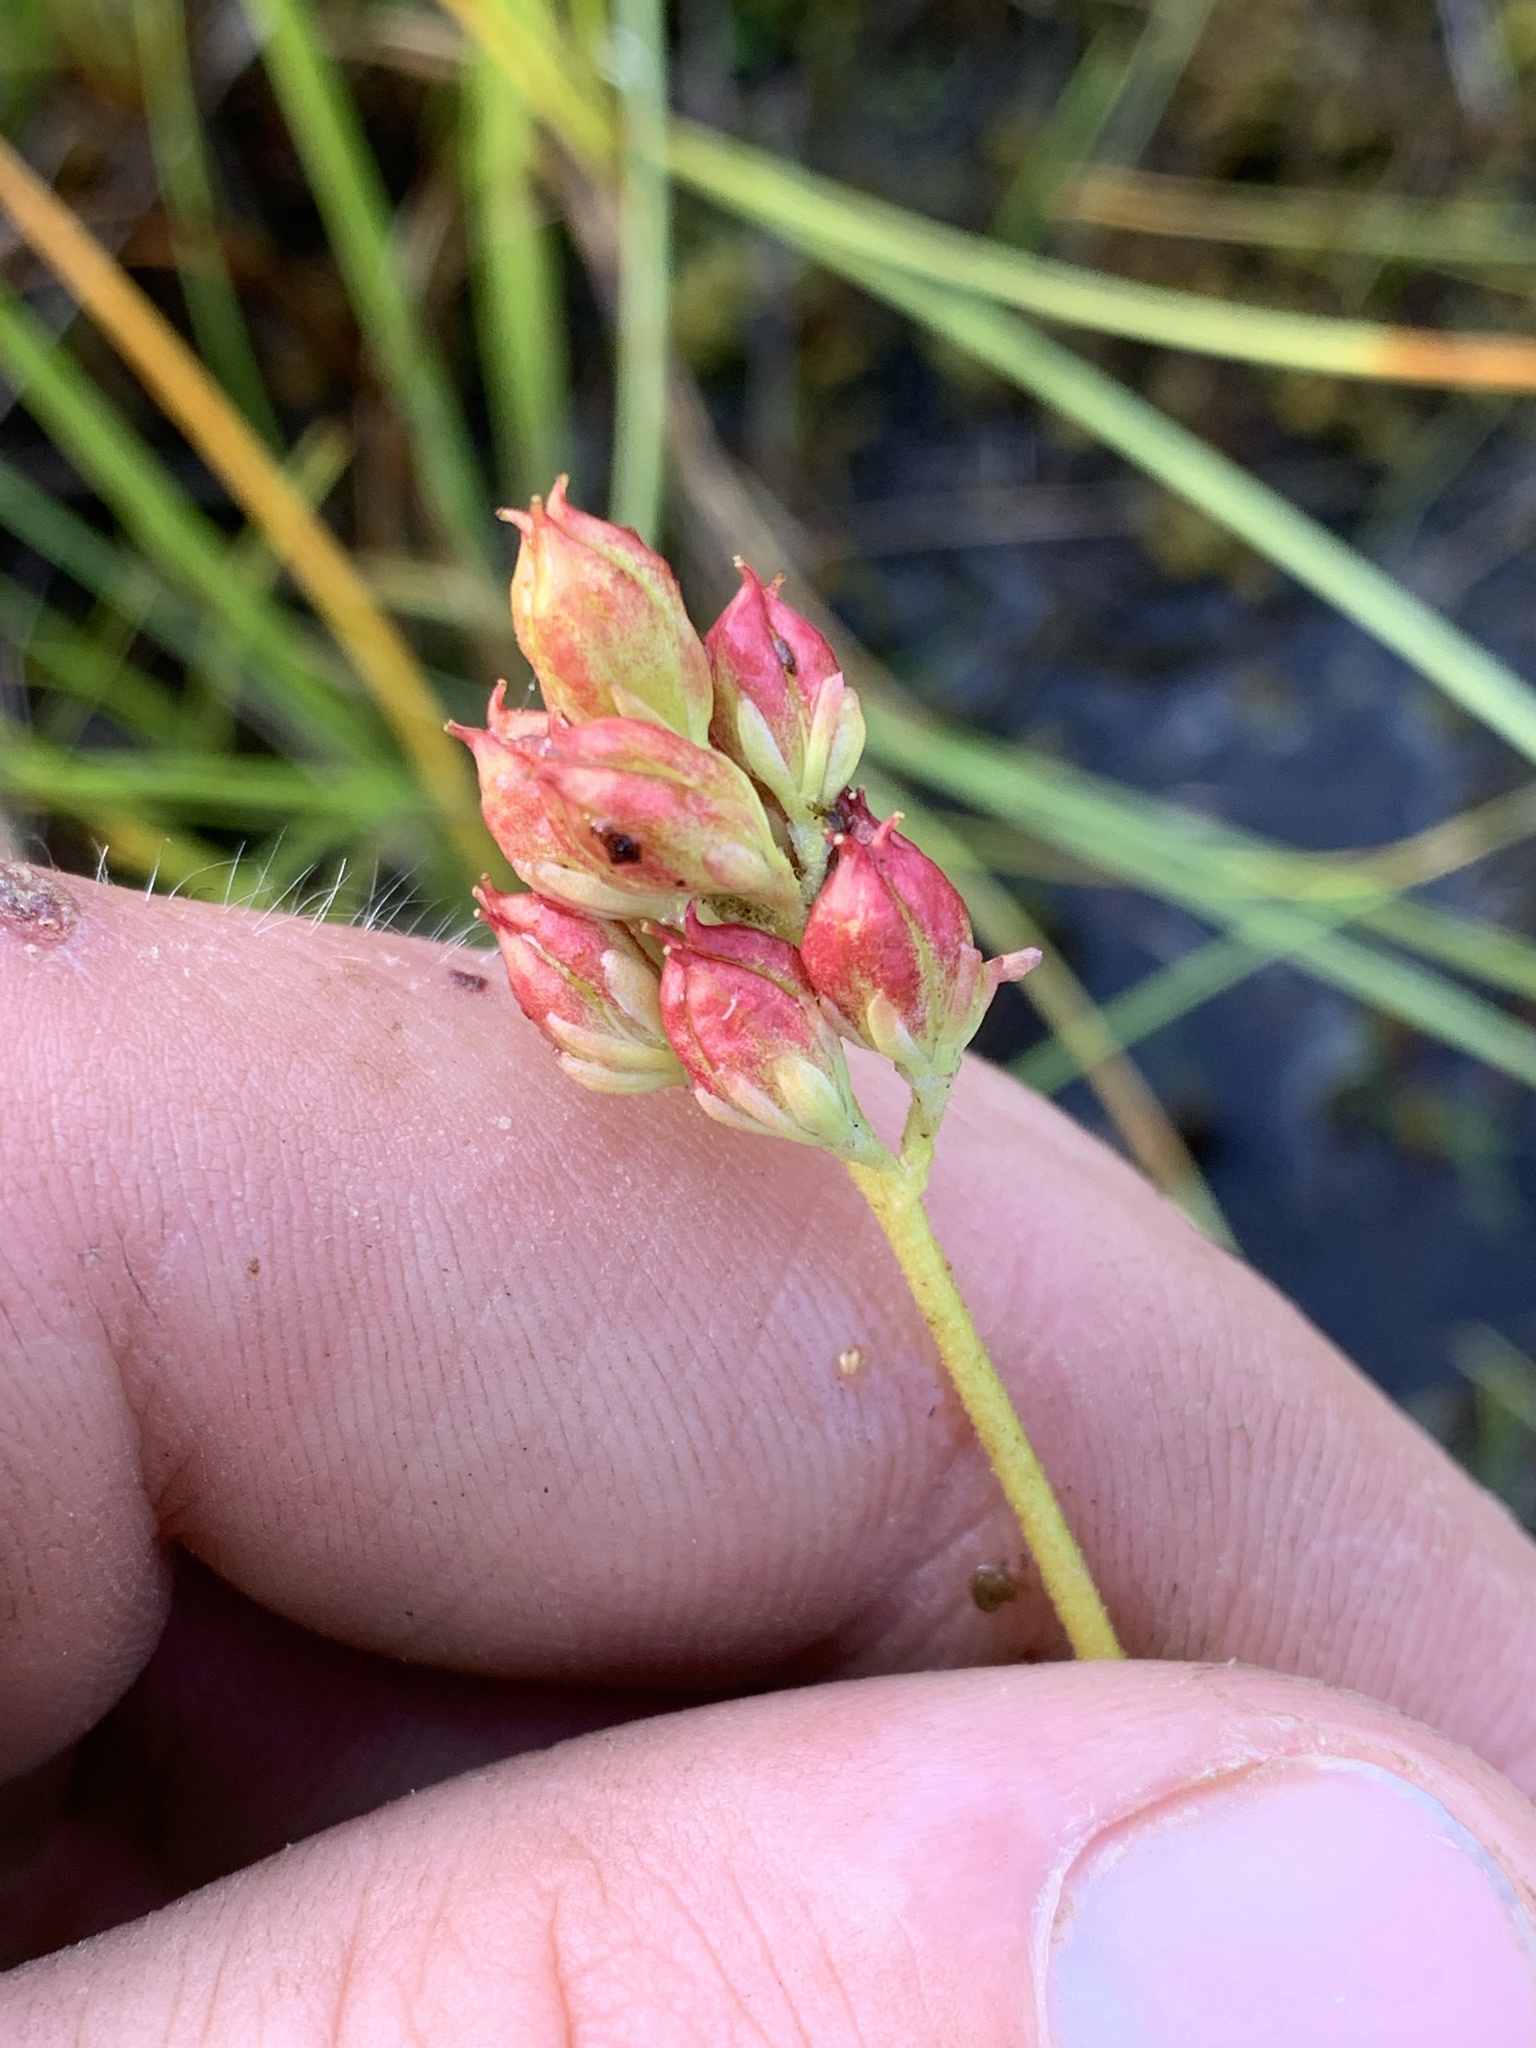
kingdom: Plantae
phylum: Tracheophyta
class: Liliopsida
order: Alismatales
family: Tofieldiaceae
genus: Triantha
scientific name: Triantha glutinosa
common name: Glutinous tofieldia
